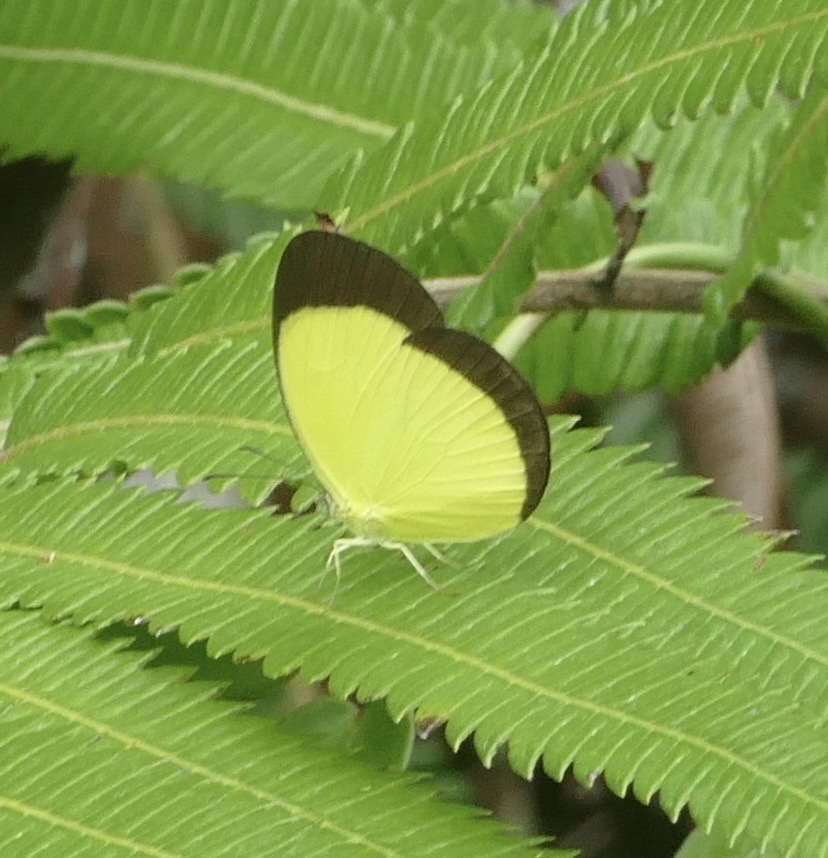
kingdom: Animalia
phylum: Arthropoda
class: Insecta
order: Lepidoptera
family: Pieridae
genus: Eurema
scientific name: Eurema puella
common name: Broad margined grass yellow
